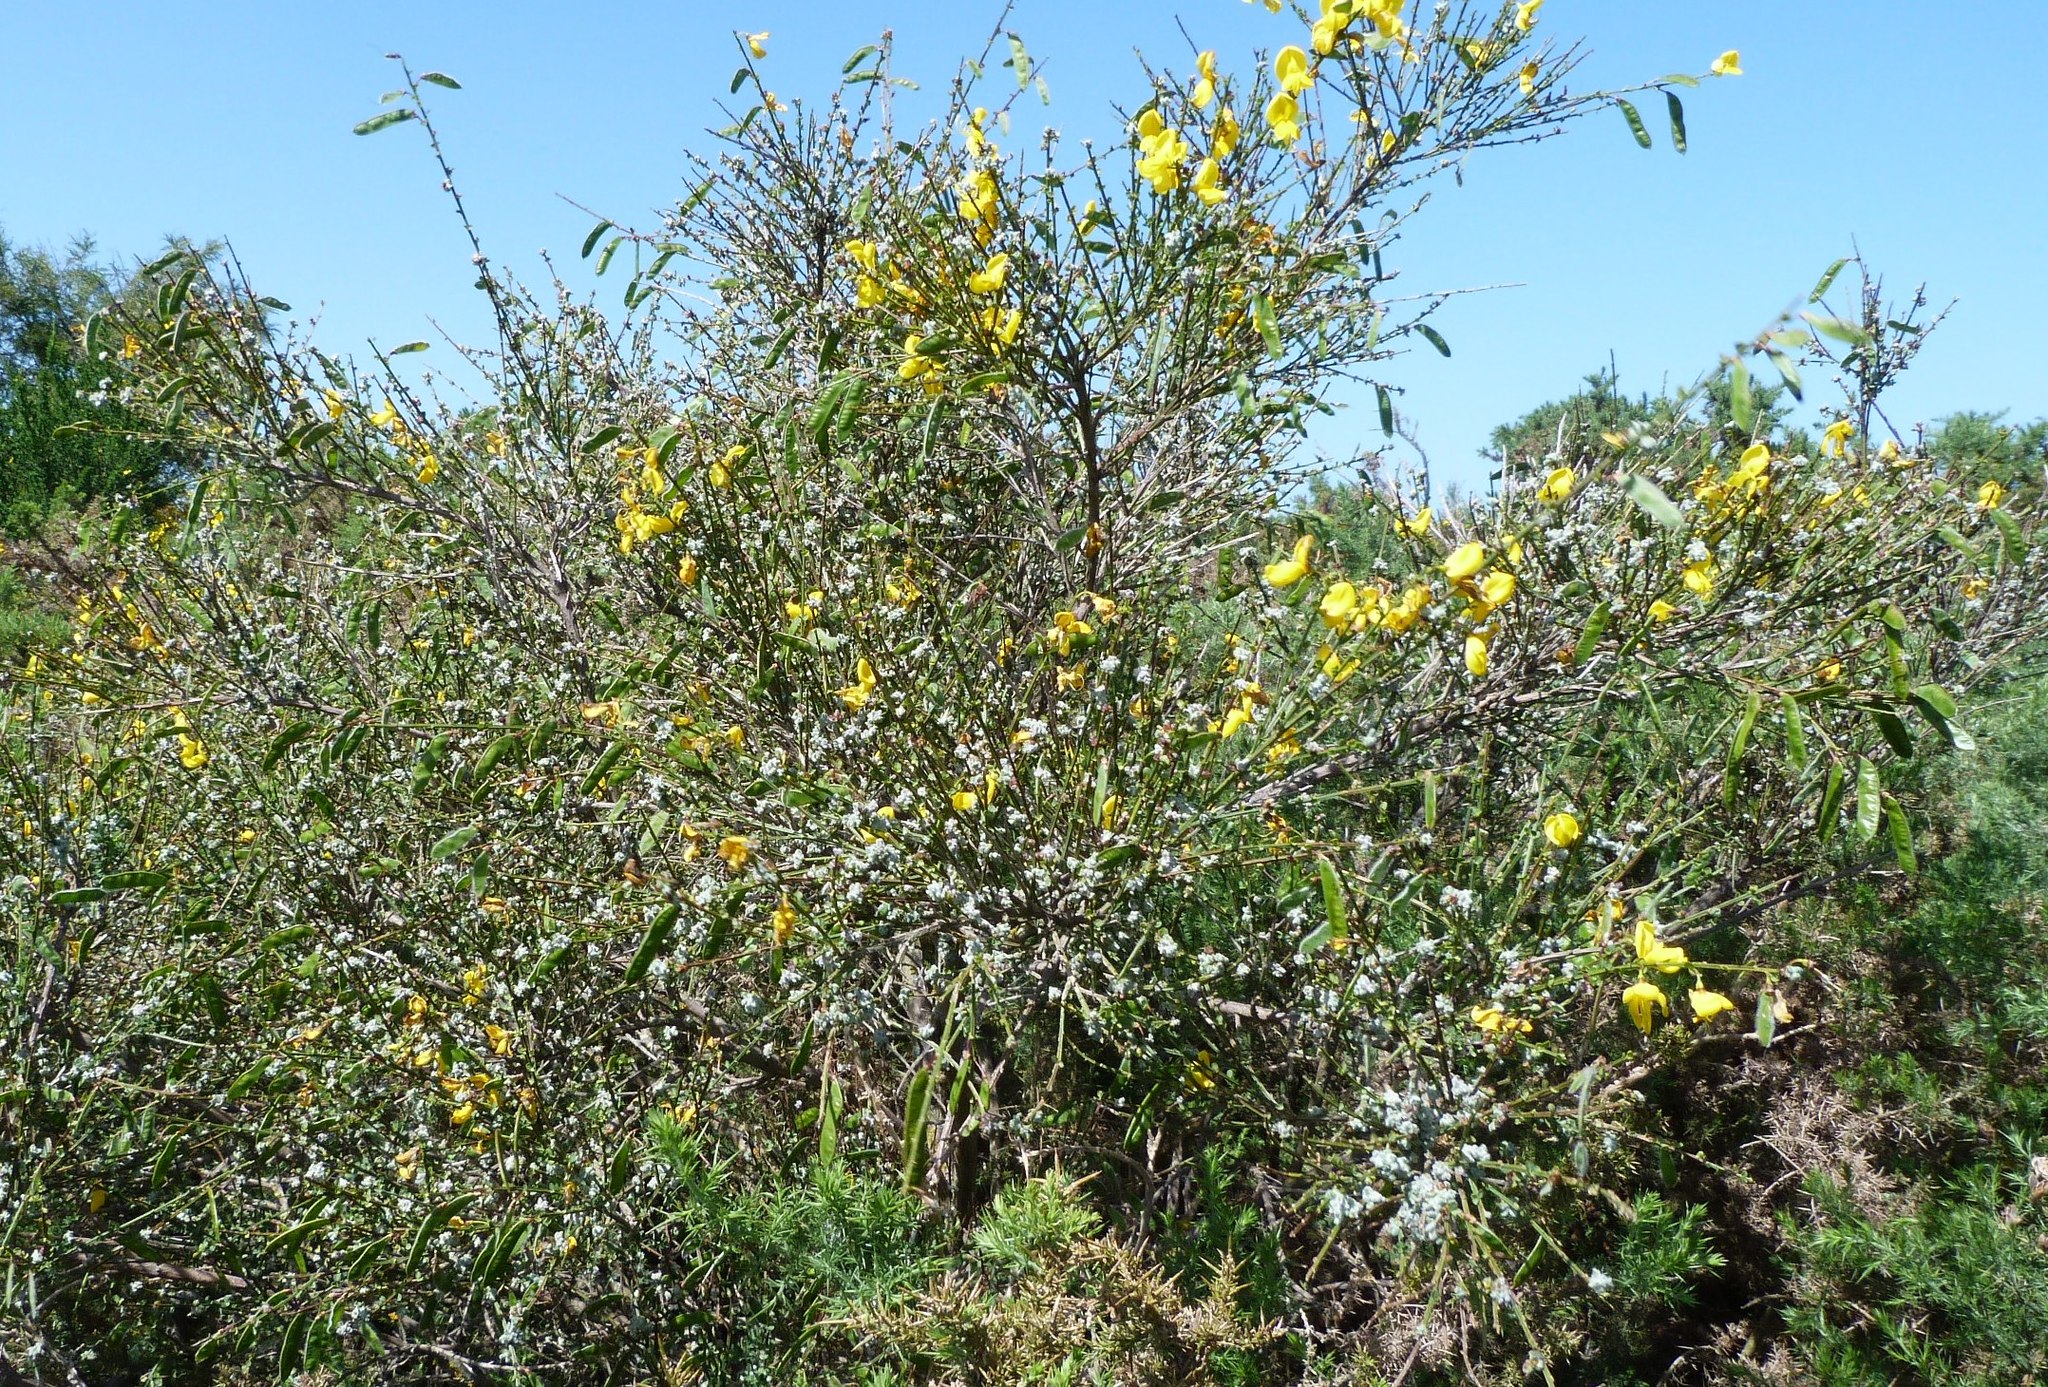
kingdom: Animalia
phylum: Arthropoda
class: Arachnida
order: Trombidiformes
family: Eriophyidae
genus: Aceria
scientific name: Aceria genistae
